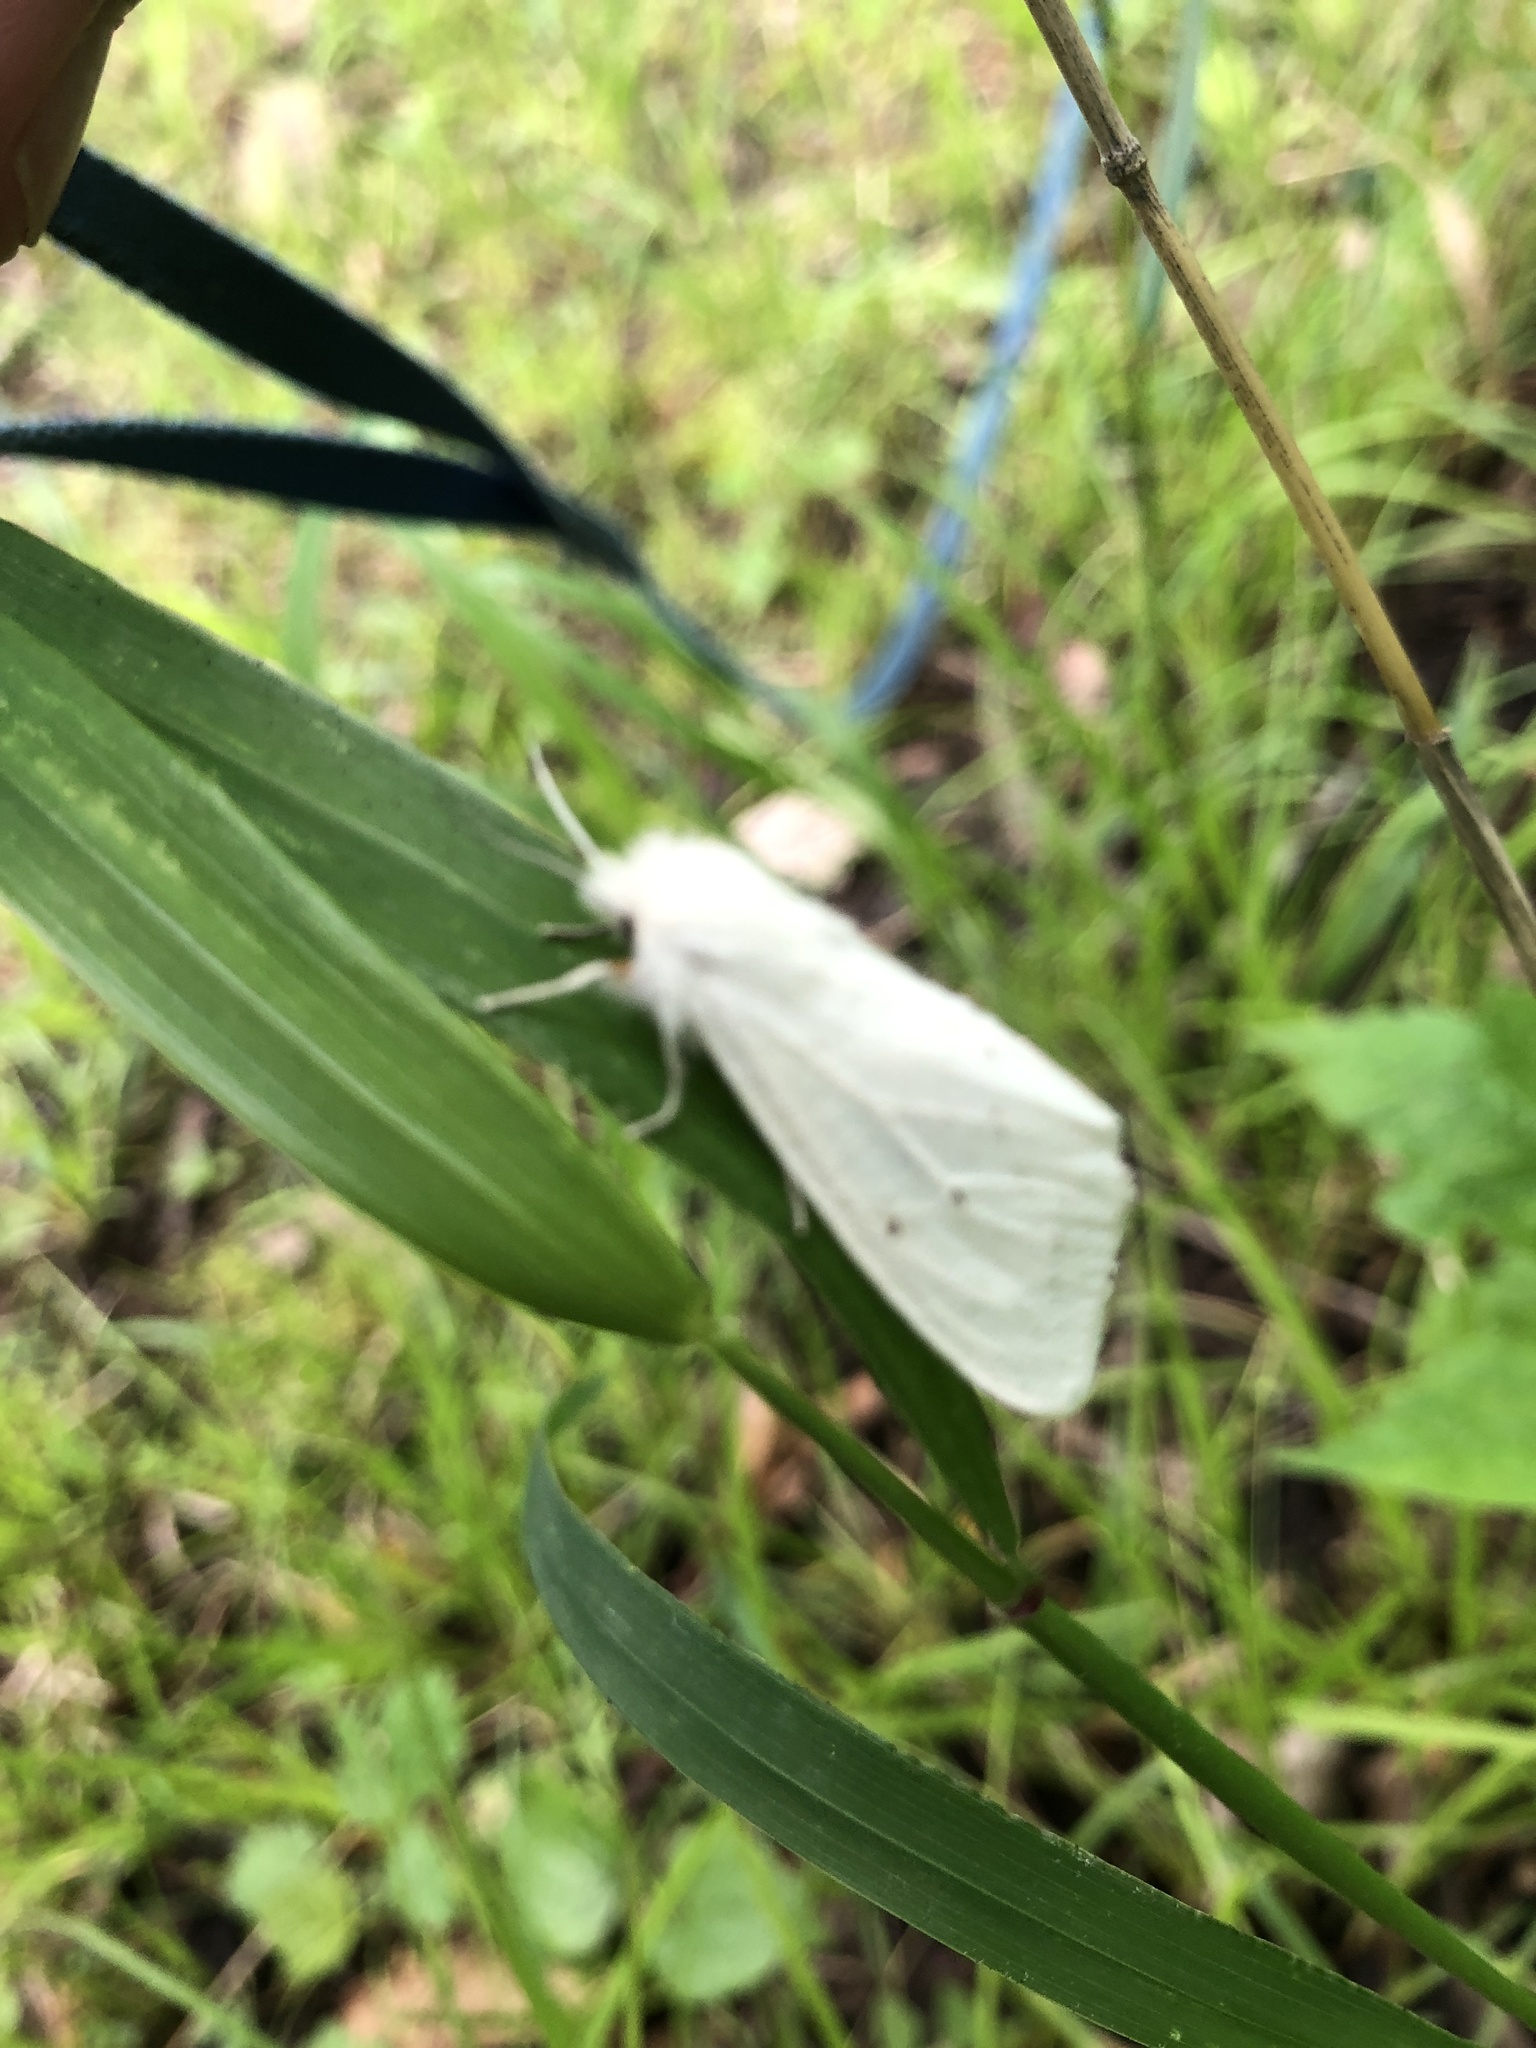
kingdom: Animalia
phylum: Arthropoda
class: Insecta
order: Lepidoptera
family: Erebidae
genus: Spilosoma
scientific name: Spilosoma virginica
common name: Virginia tiger moth
